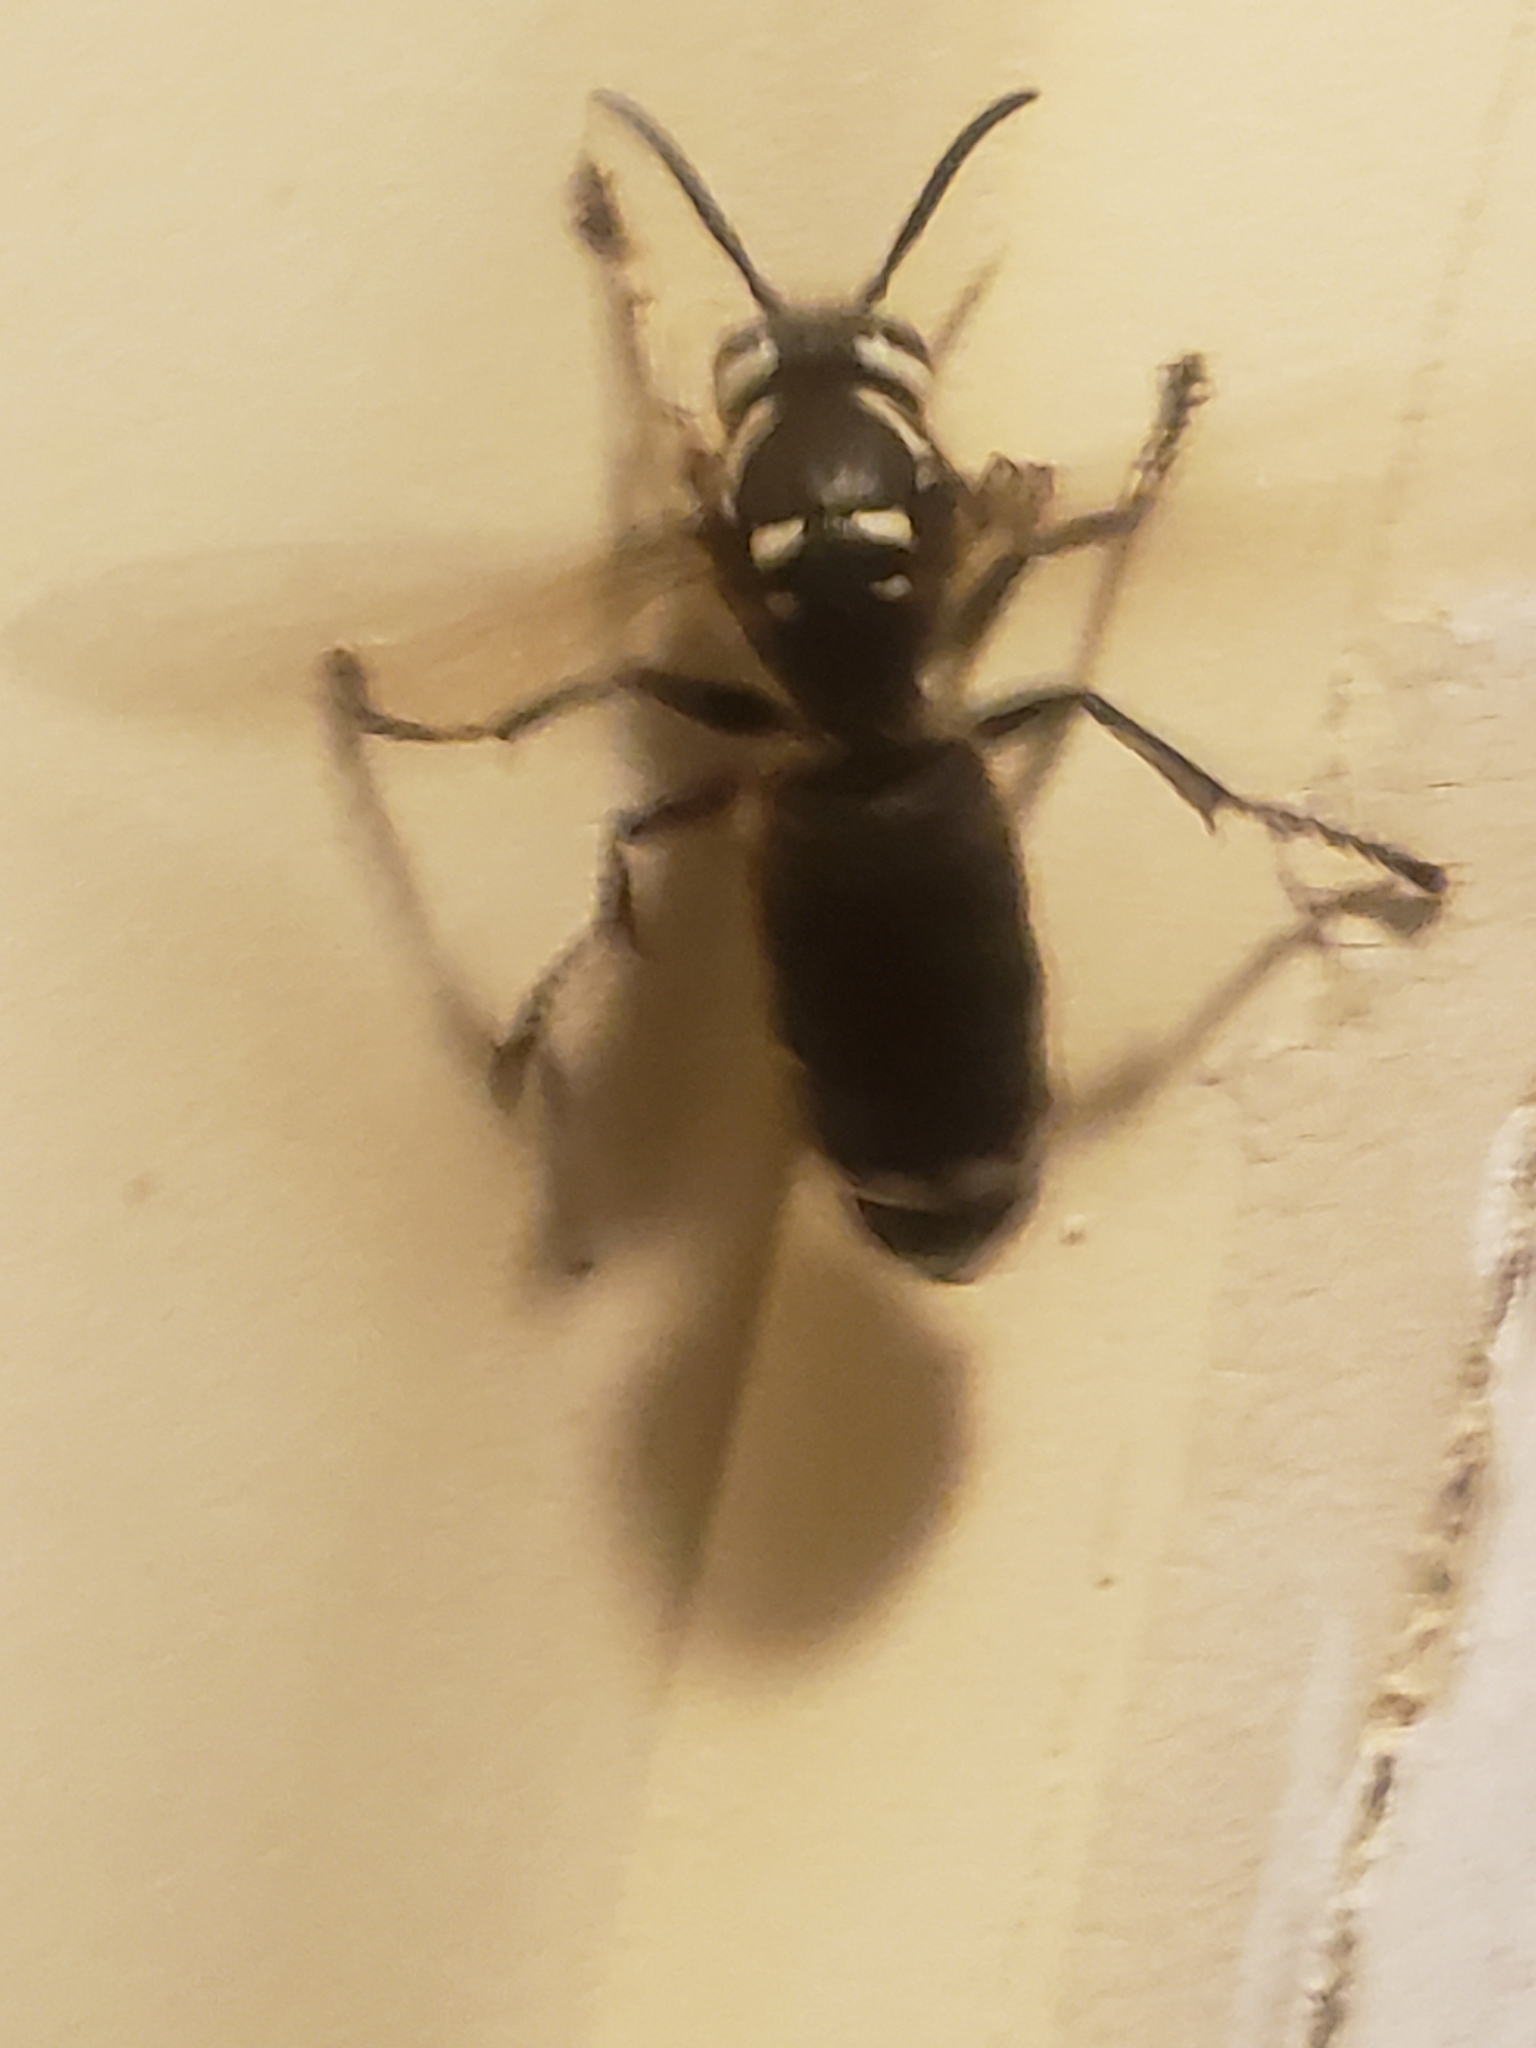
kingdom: Animalia
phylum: Arthropoda
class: Insecta
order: Hymenoptera
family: Vespidae
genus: Dolichovespula
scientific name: Dolichovespula maculata
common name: Bald-faced hornet
